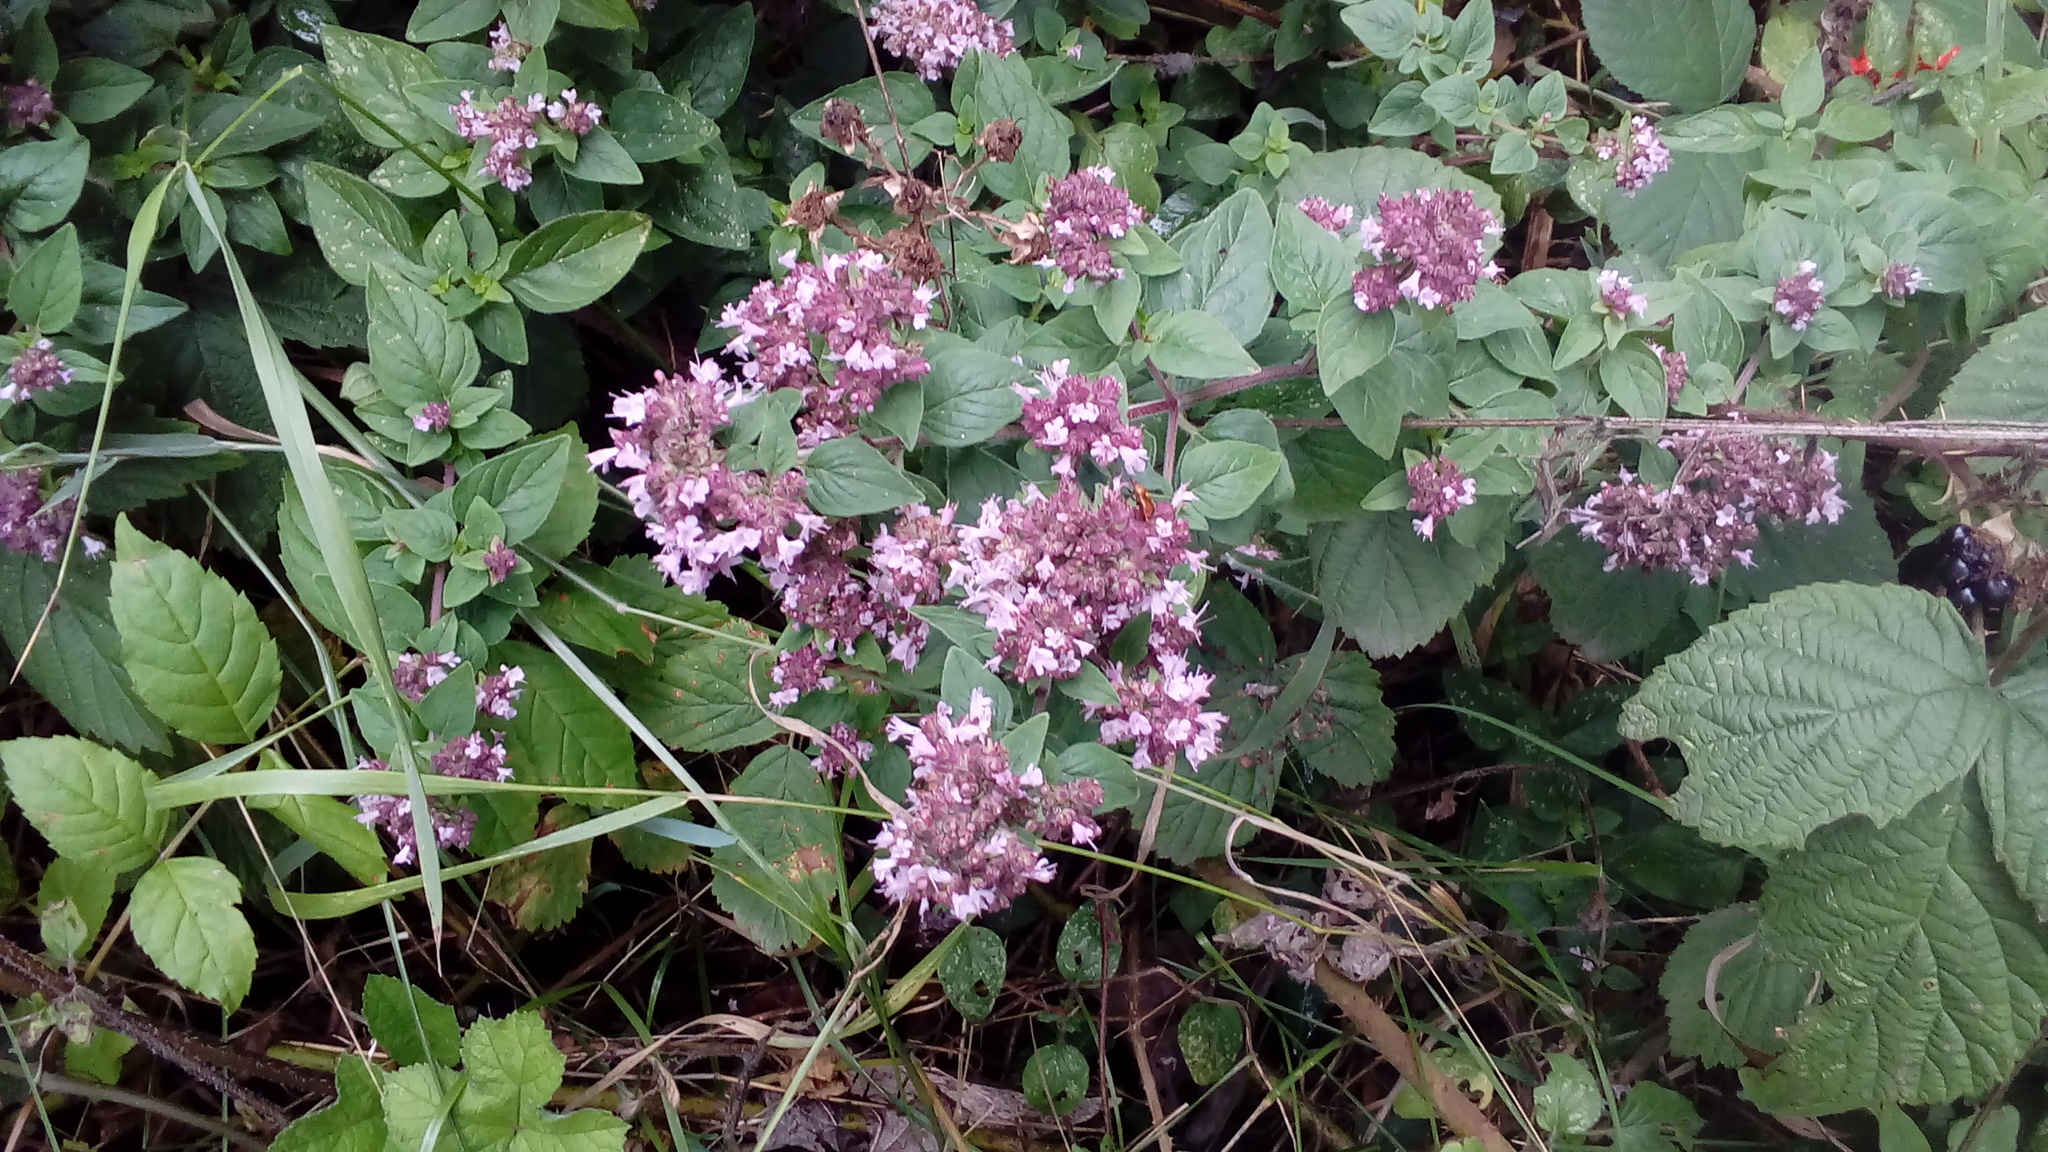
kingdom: Plantae
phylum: Tracheophyta
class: Magnoliopsida
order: Lamiales
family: Lamiaceae
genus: Origanum
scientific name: Origanum vulgare
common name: Wild marjoram
